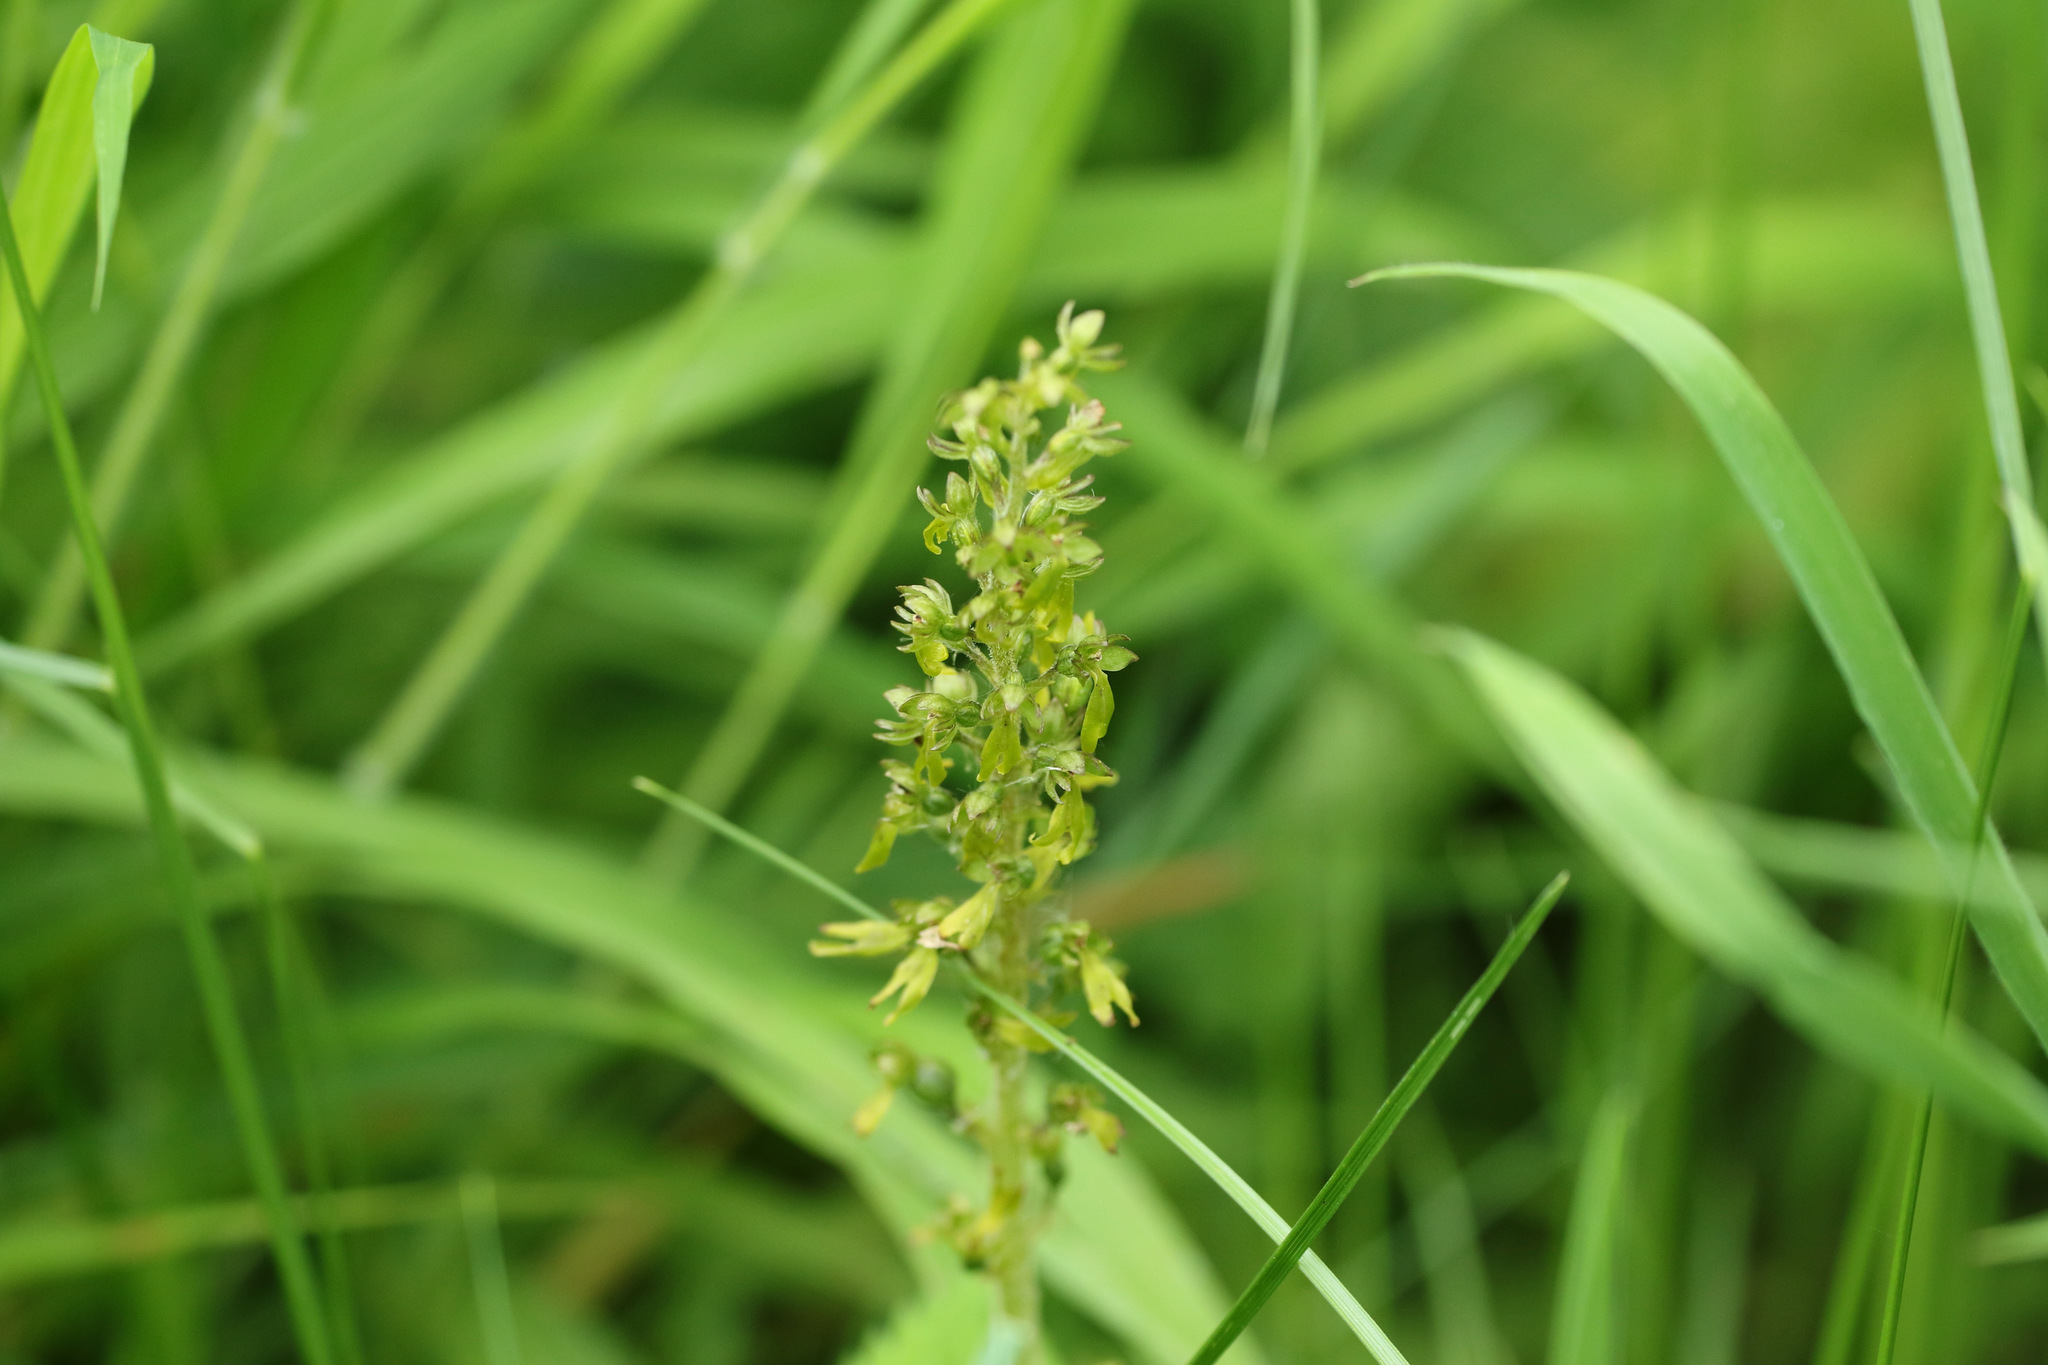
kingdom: Plantae
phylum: Tracheophyta
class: Liliopsida
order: Asparagales
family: Orchidaceae
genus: Neottia
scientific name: Neottia ovata
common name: Common twayblade
